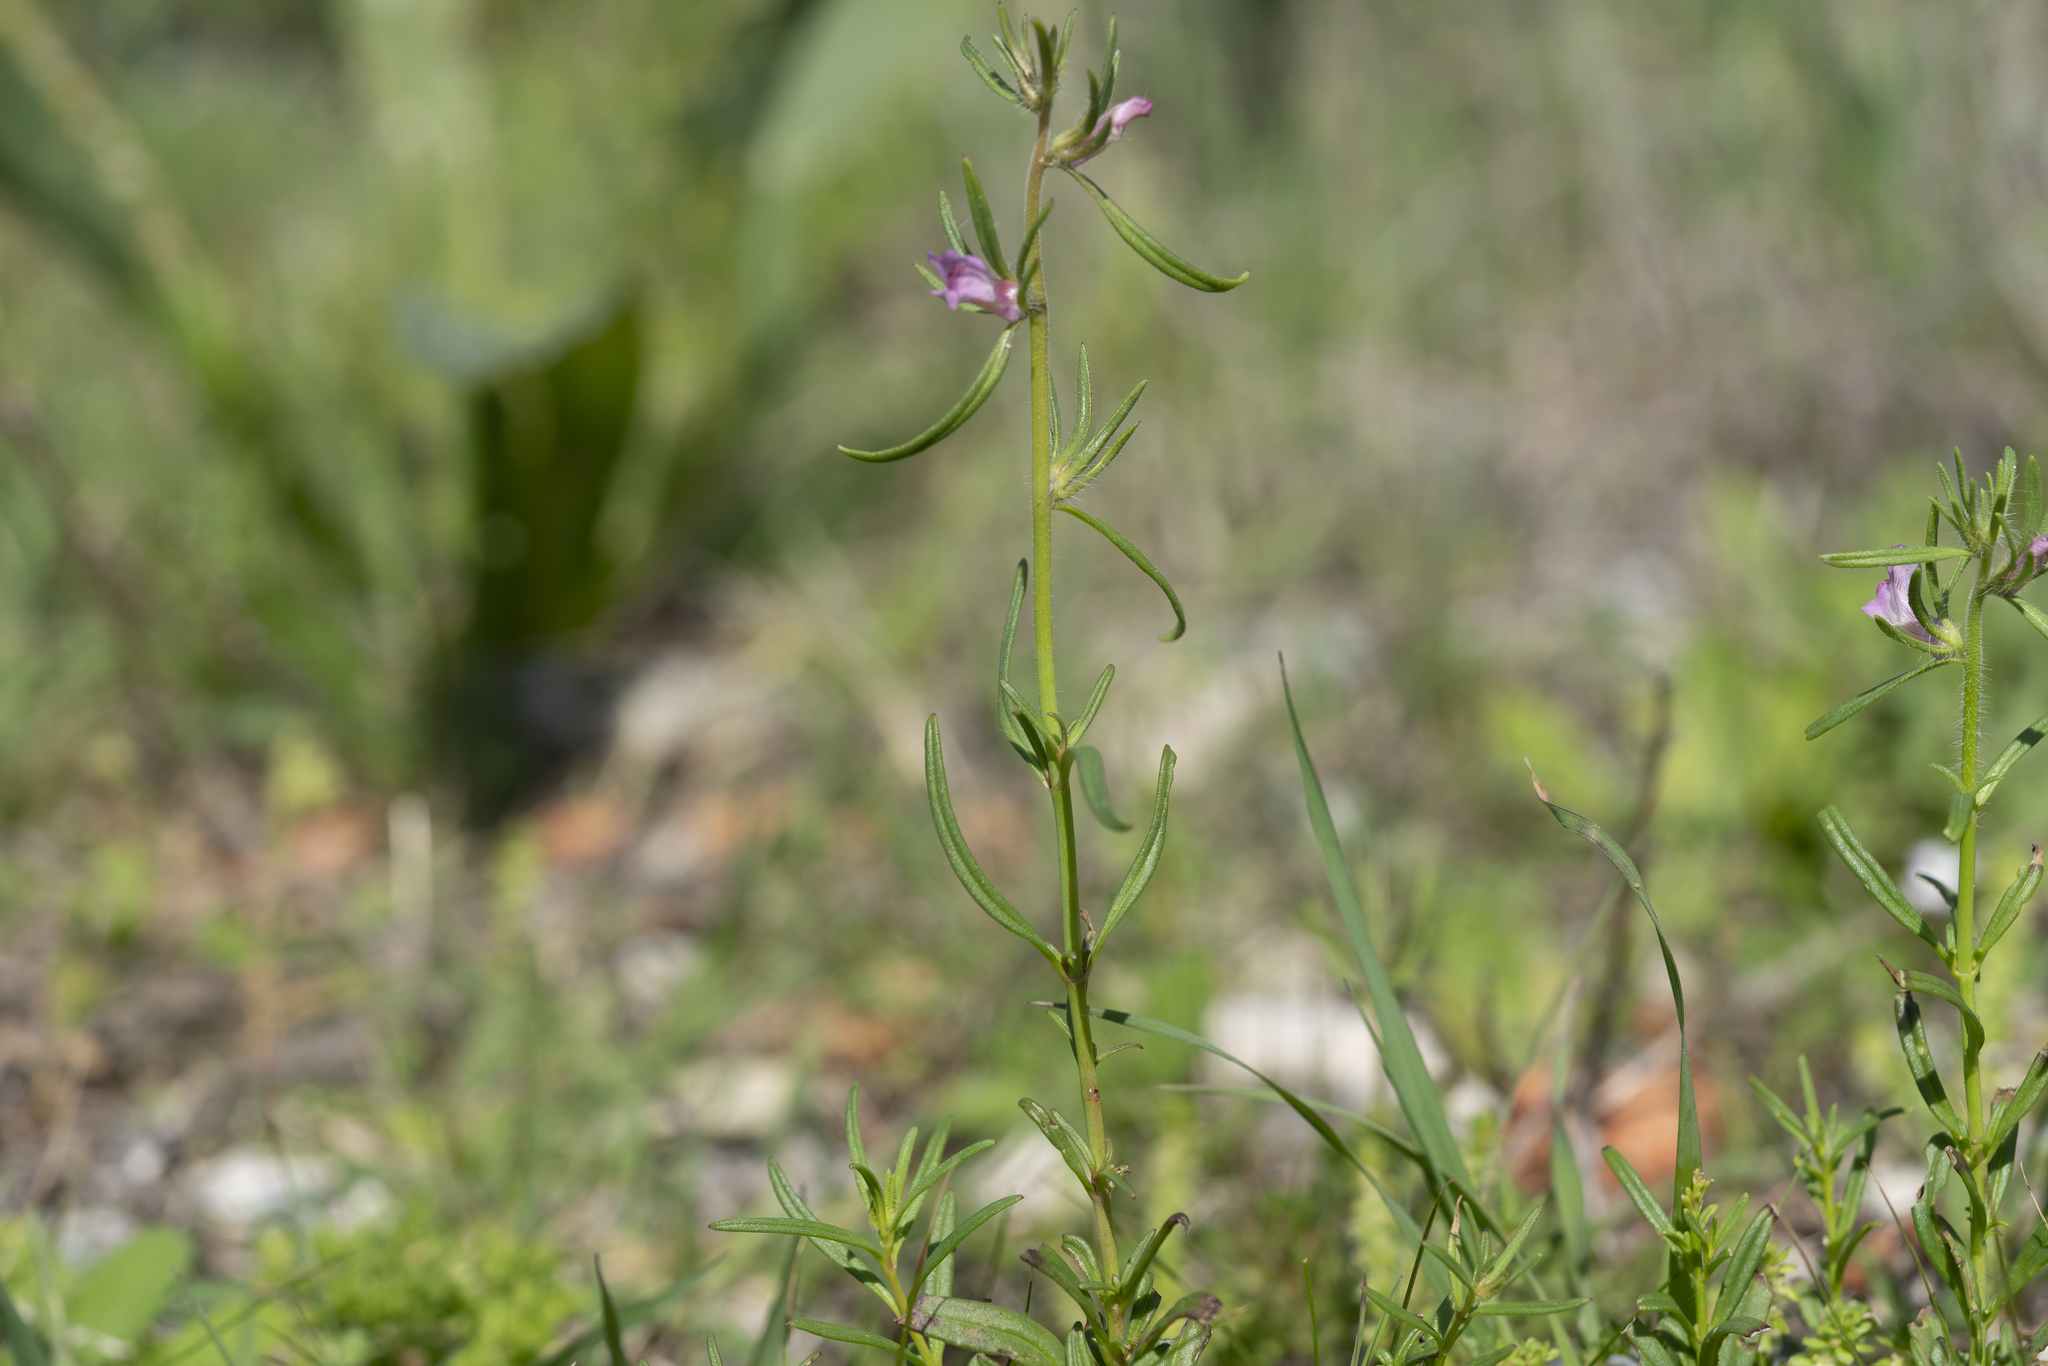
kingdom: Plantae
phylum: Tracheophyta
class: Magnoliopsida
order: Lamiales
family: Plantaginaceae
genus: Misopates
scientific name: Misopates orontium
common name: Weasel's-snout
